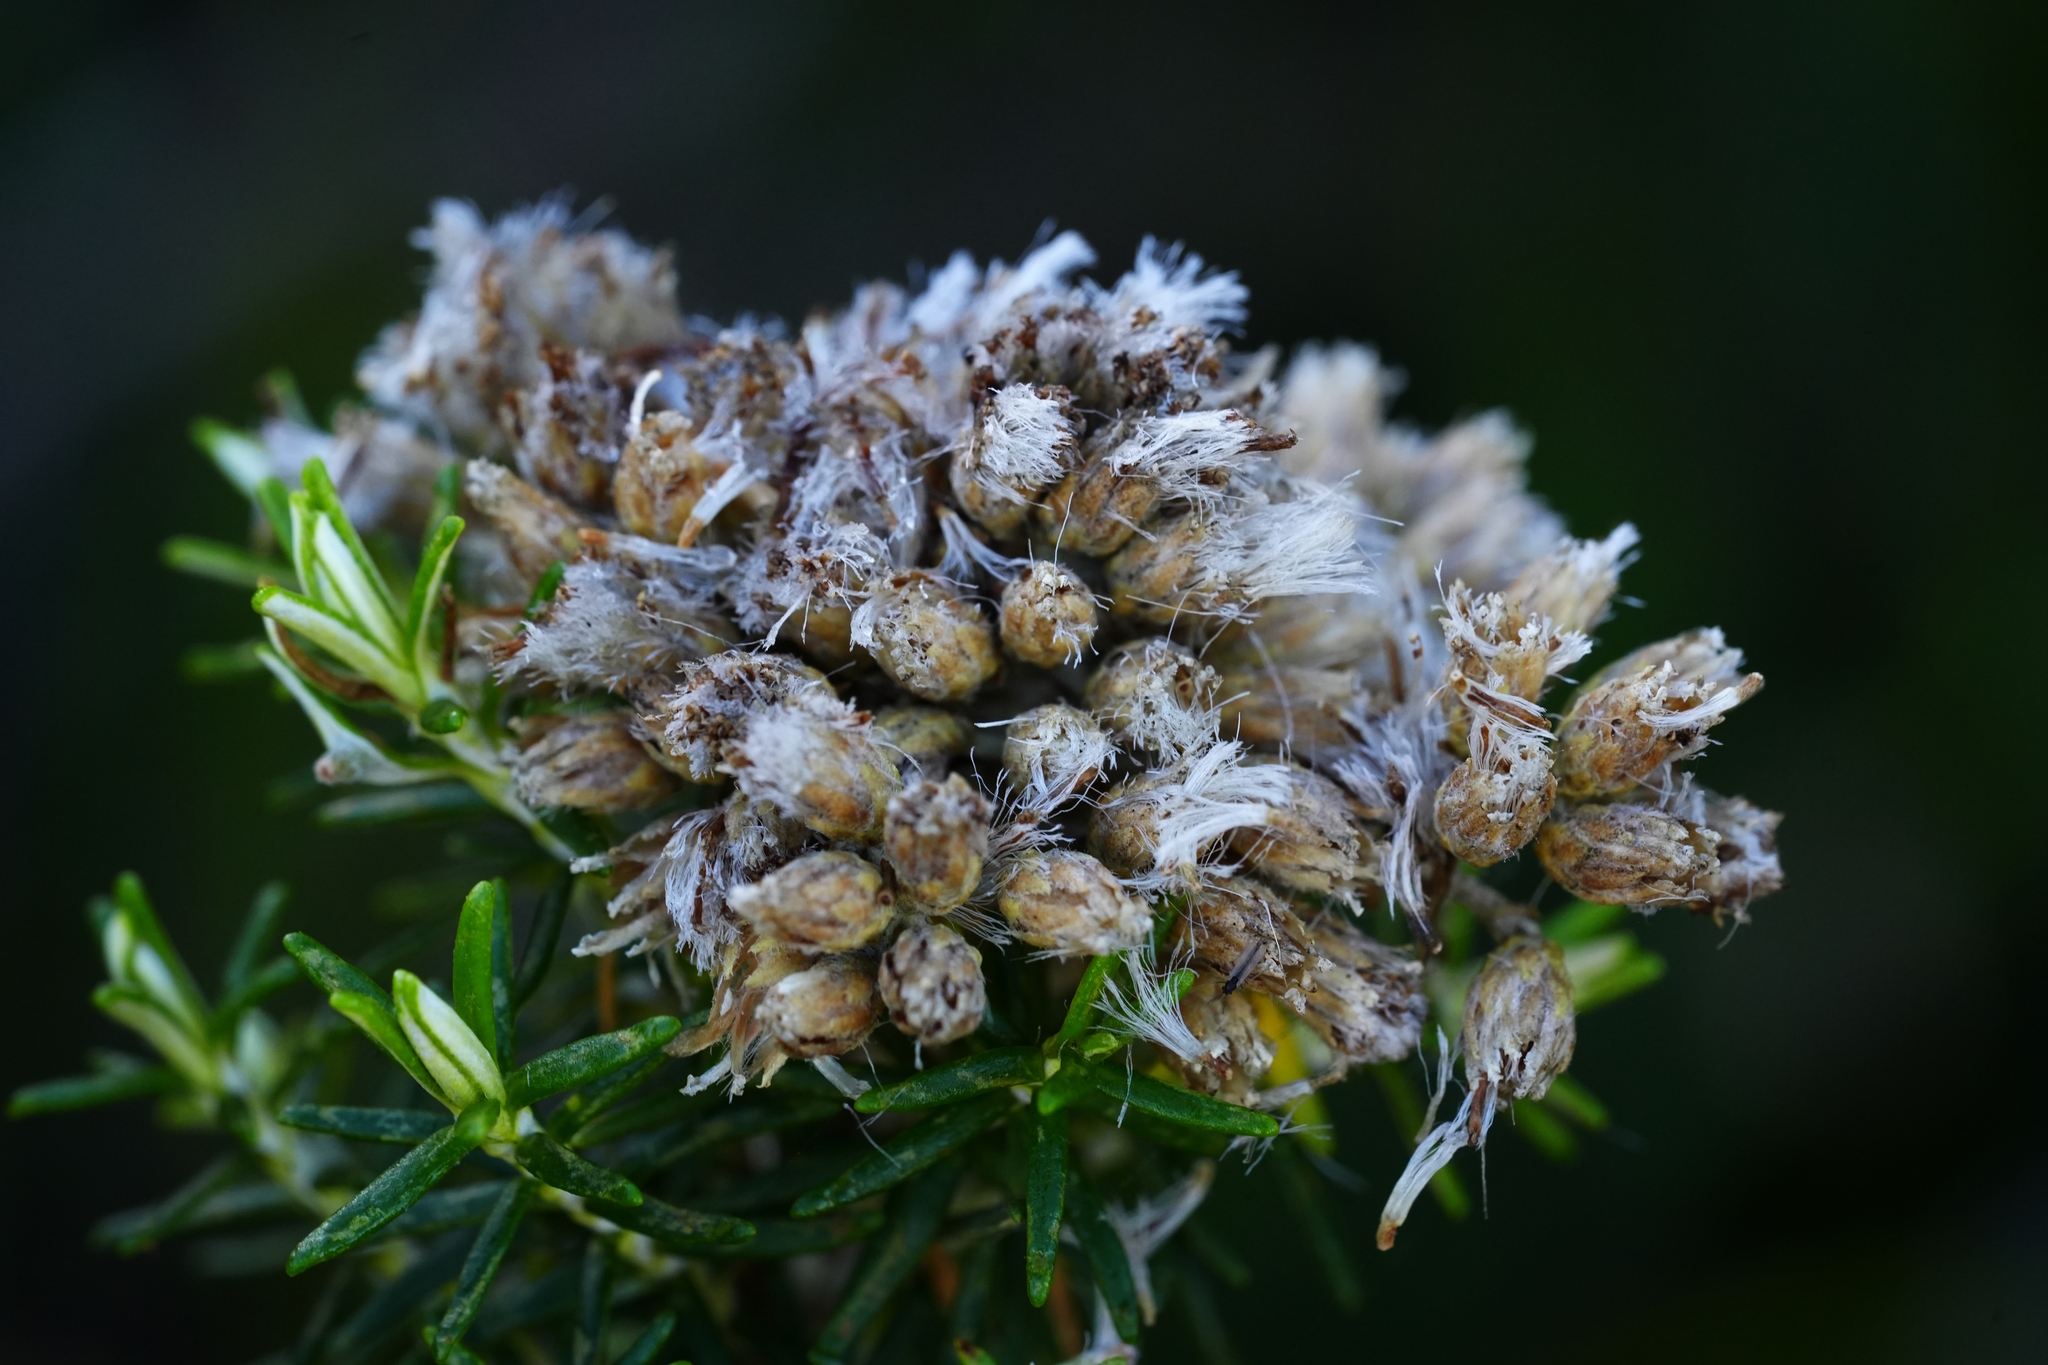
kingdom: Plantae
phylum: Tracheophyta
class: Magnoliopsida
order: Asterales
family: Asteraceae
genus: Ozothamnus
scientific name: Ozothamnus cinereus
